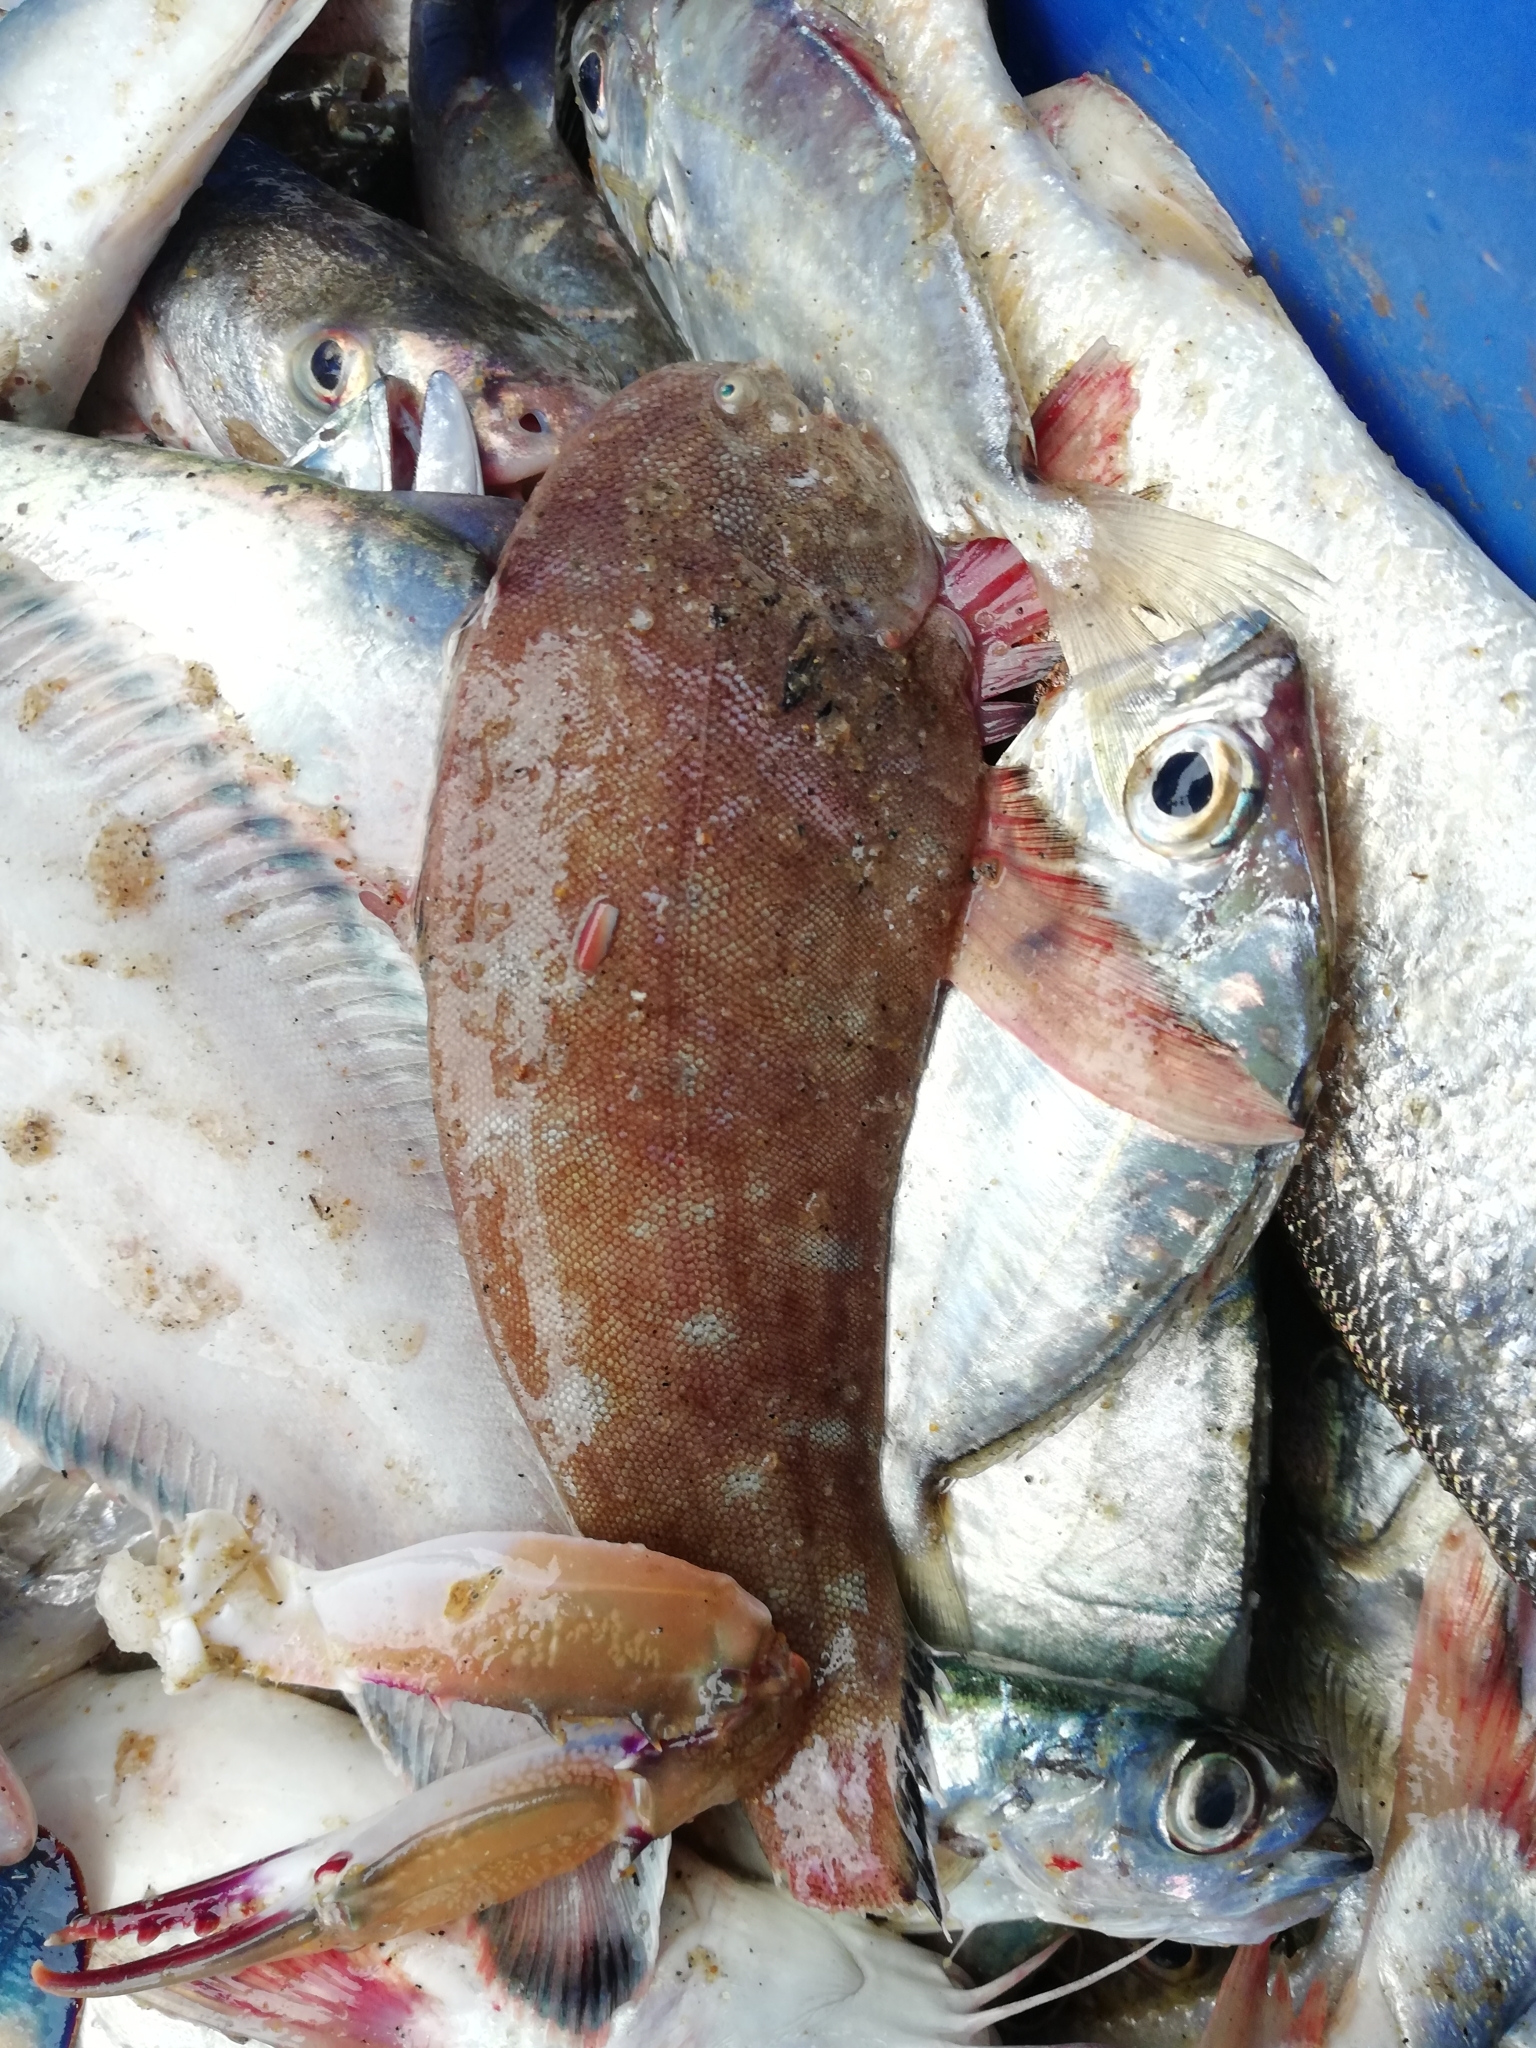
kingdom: Animalia
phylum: Chordata
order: Pleuronectiformes
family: Soleidae
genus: Synaptura
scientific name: Synaptura commersonnii
